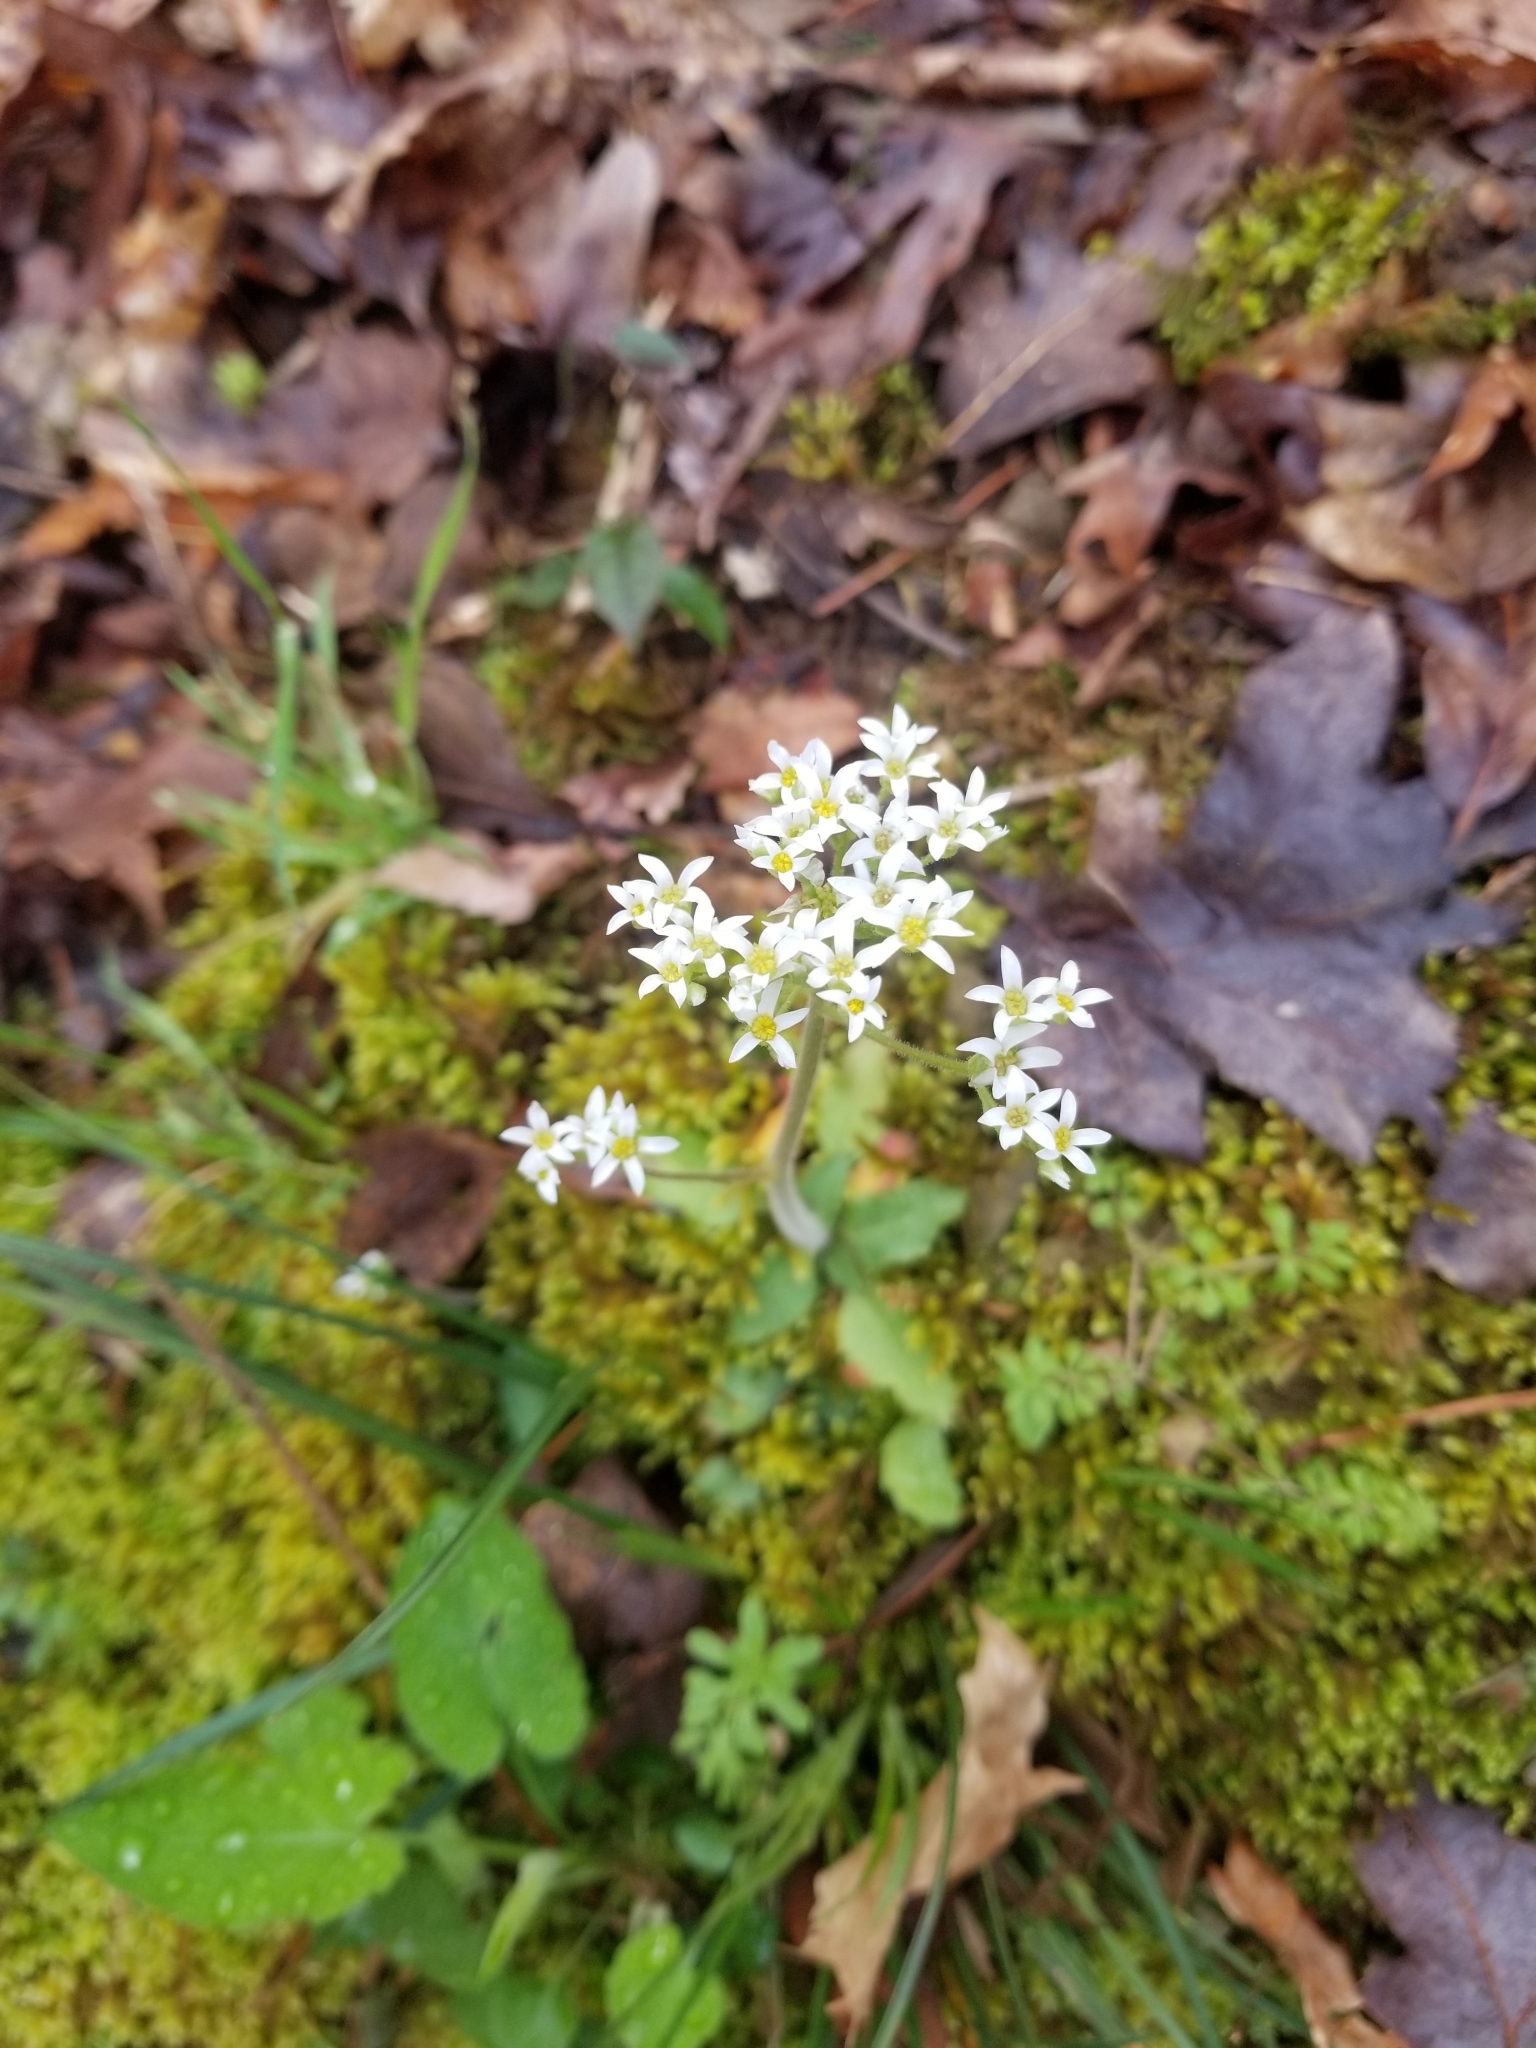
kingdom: Plantae
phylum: Tracheophyta
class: Magnoliopsida
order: Saxifragales
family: Saxifragaceae
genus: Micranthes
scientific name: Micranthes virginiensis
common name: Early saxifrage
